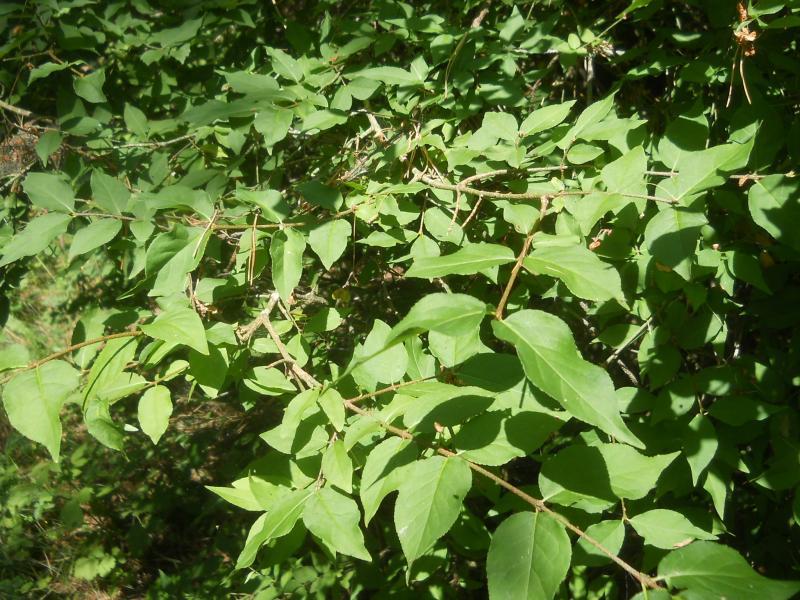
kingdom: Plantae
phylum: Tracheophyta
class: Magnoliopsida
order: Celastrales
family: Celastraceae
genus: Euonymus
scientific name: Euonymus verrucosus
